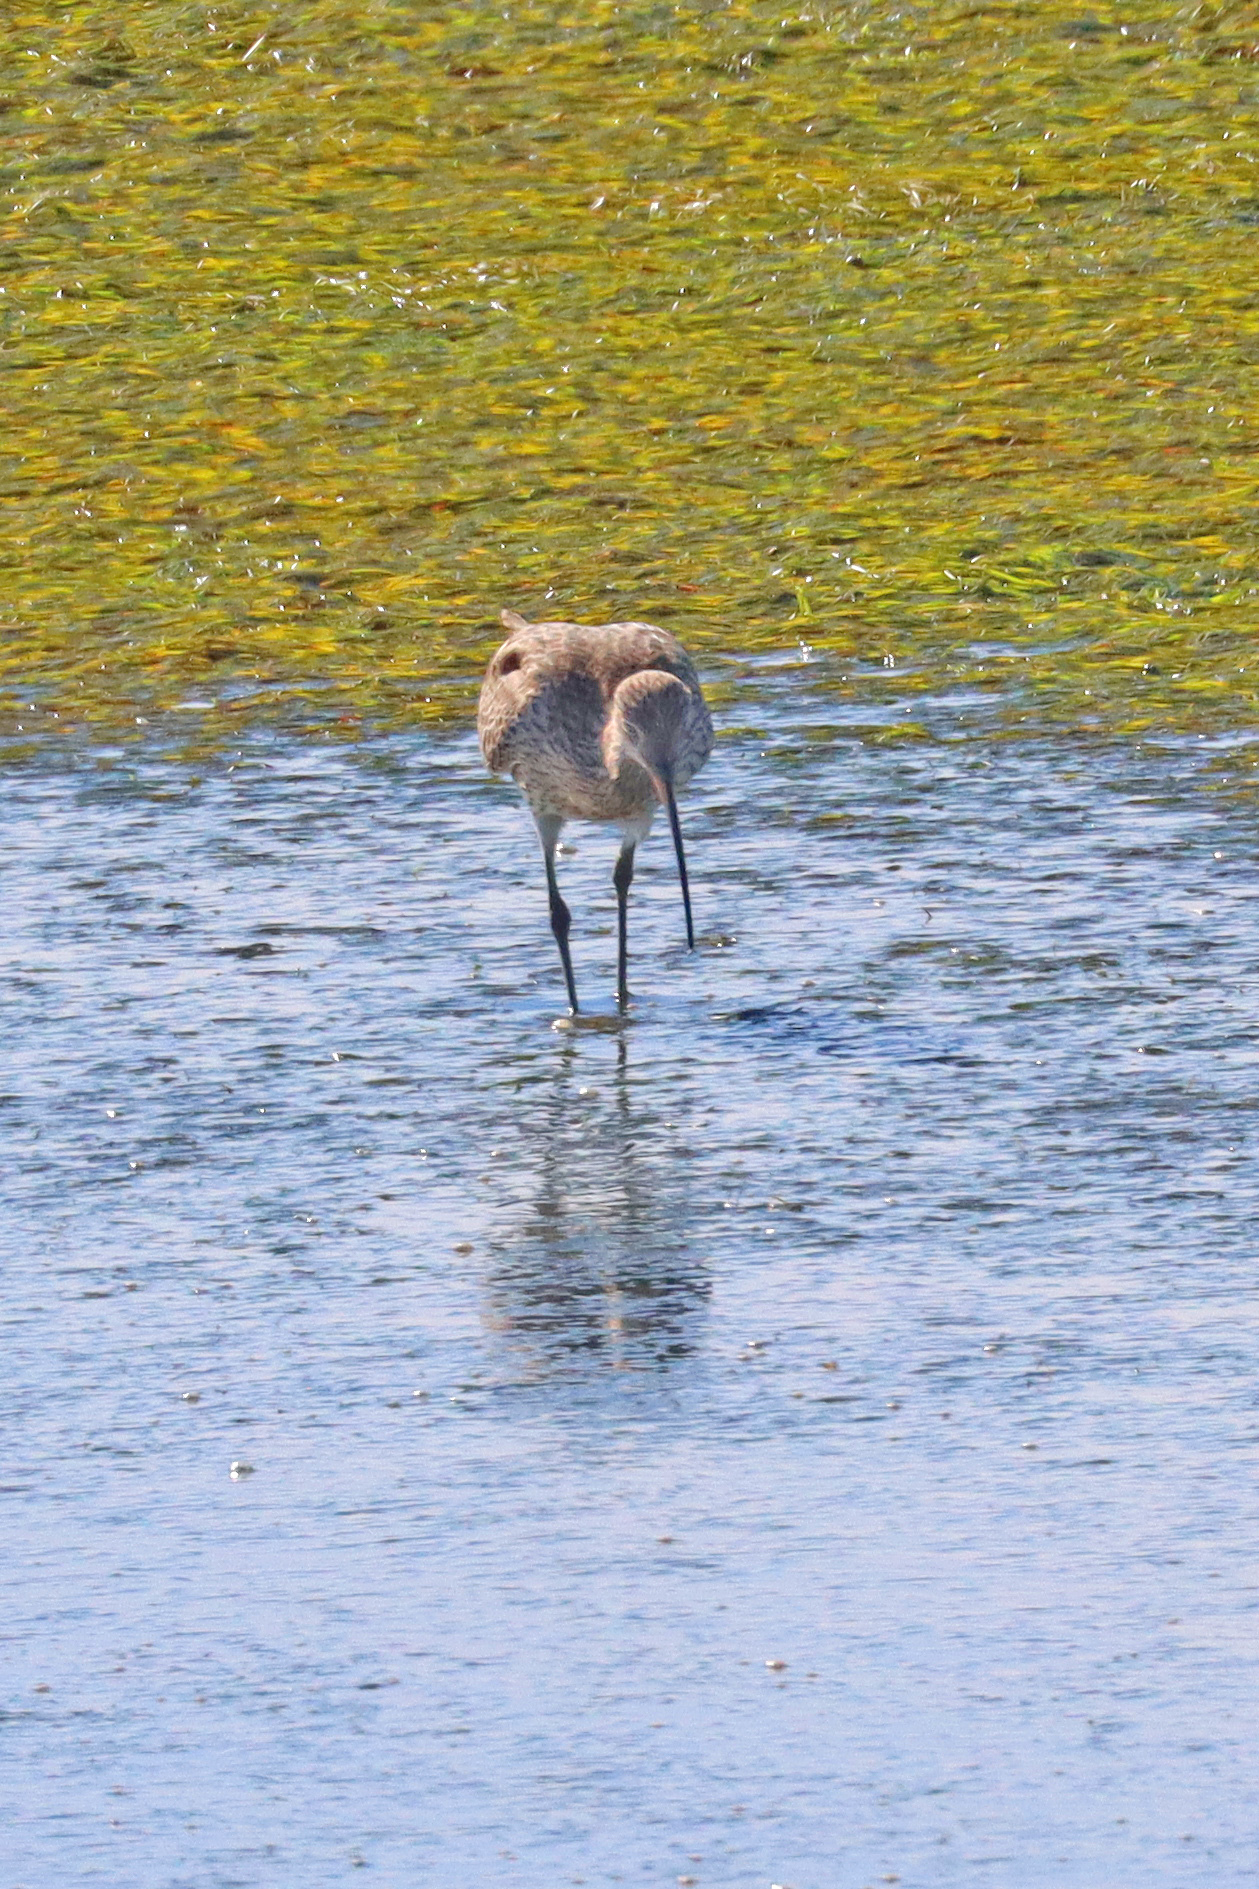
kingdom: Animalia
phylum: Chordata
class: Aves
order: Charadriiformes
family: Scolopacidae
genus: Numenius
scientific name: Numenius arquata
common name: Eurasian curlew
